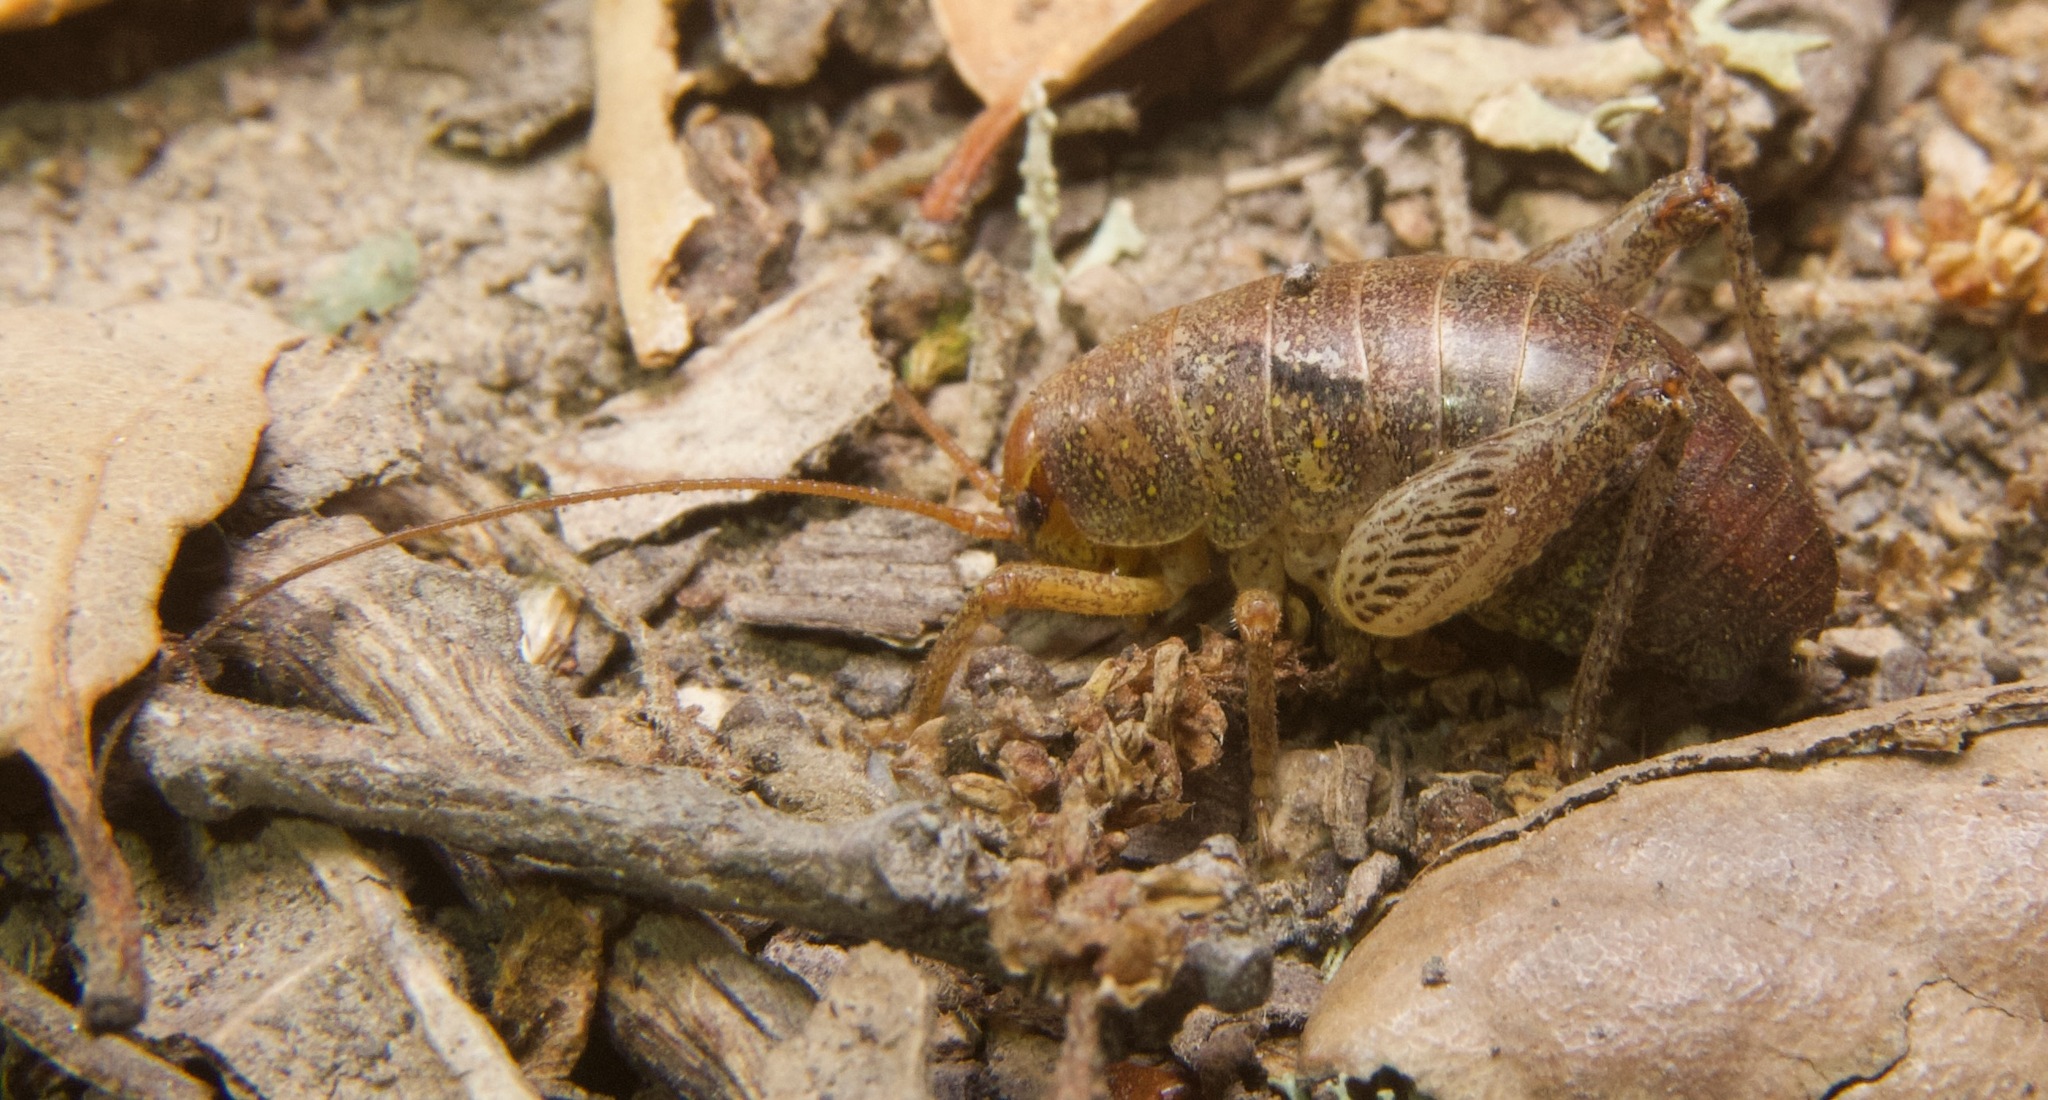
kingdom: Animalia
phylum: Arthropoda
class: Insecta
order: Orthoptera
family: Rhaphidophoridae
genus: Gammarotettix
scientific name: Gammarotettix bilobatus
